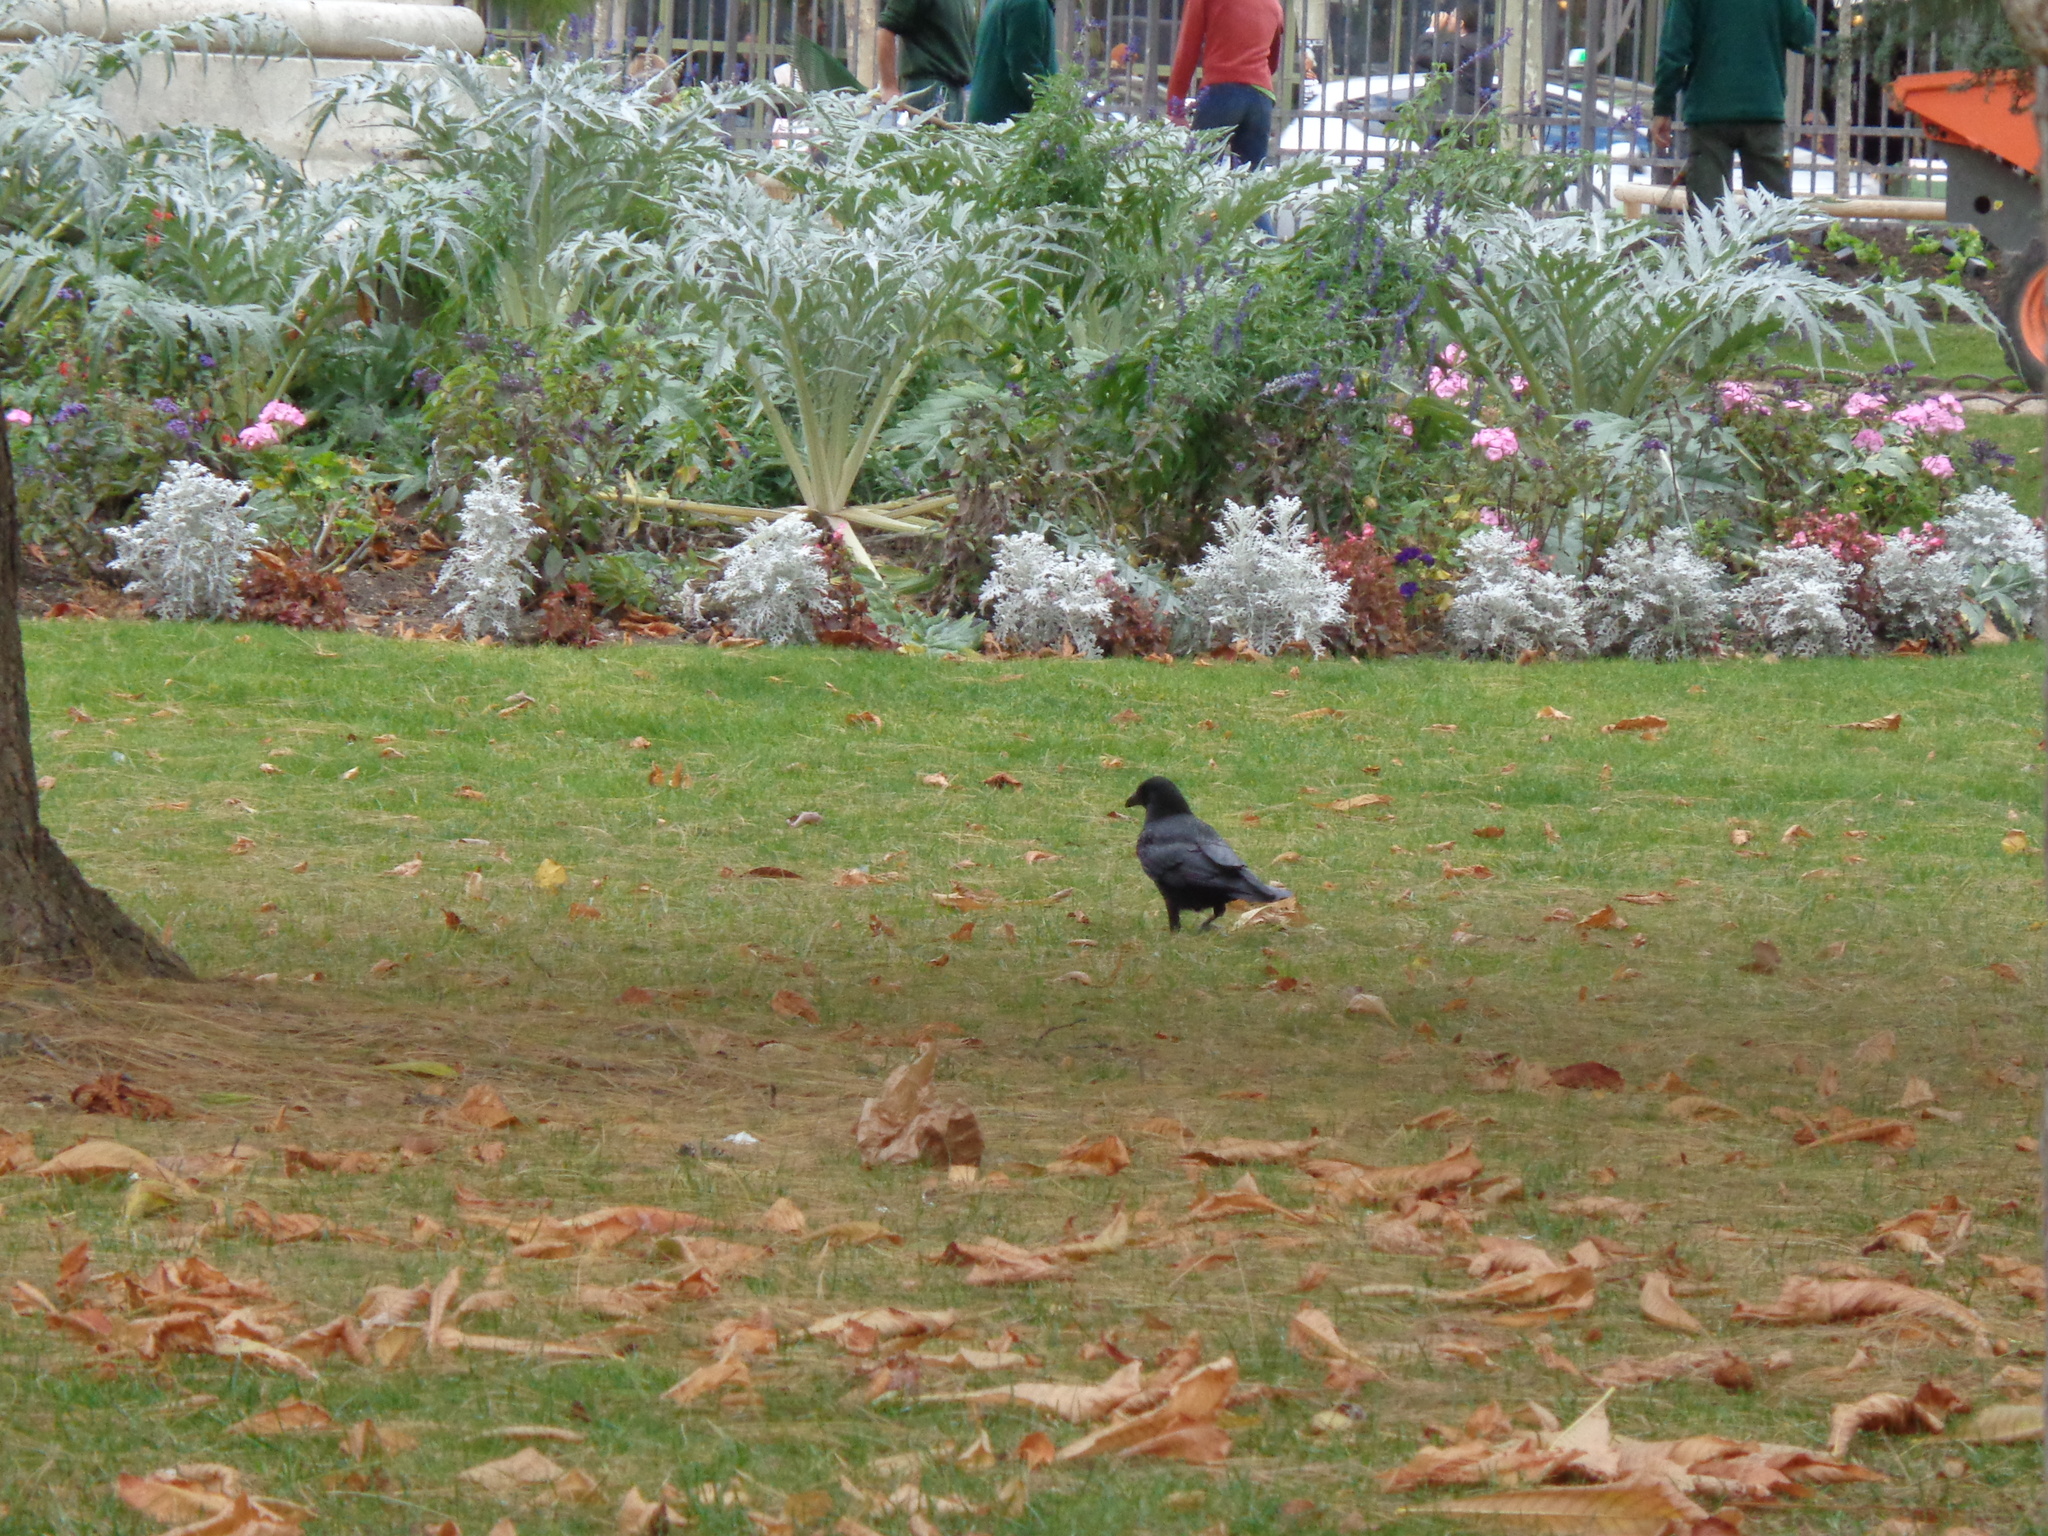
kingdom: Animalia
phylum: Chordata
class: Aves
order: Passeriformes
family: Corvidae
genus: Corvus
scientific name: Corvus corone
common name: Carrion crow
